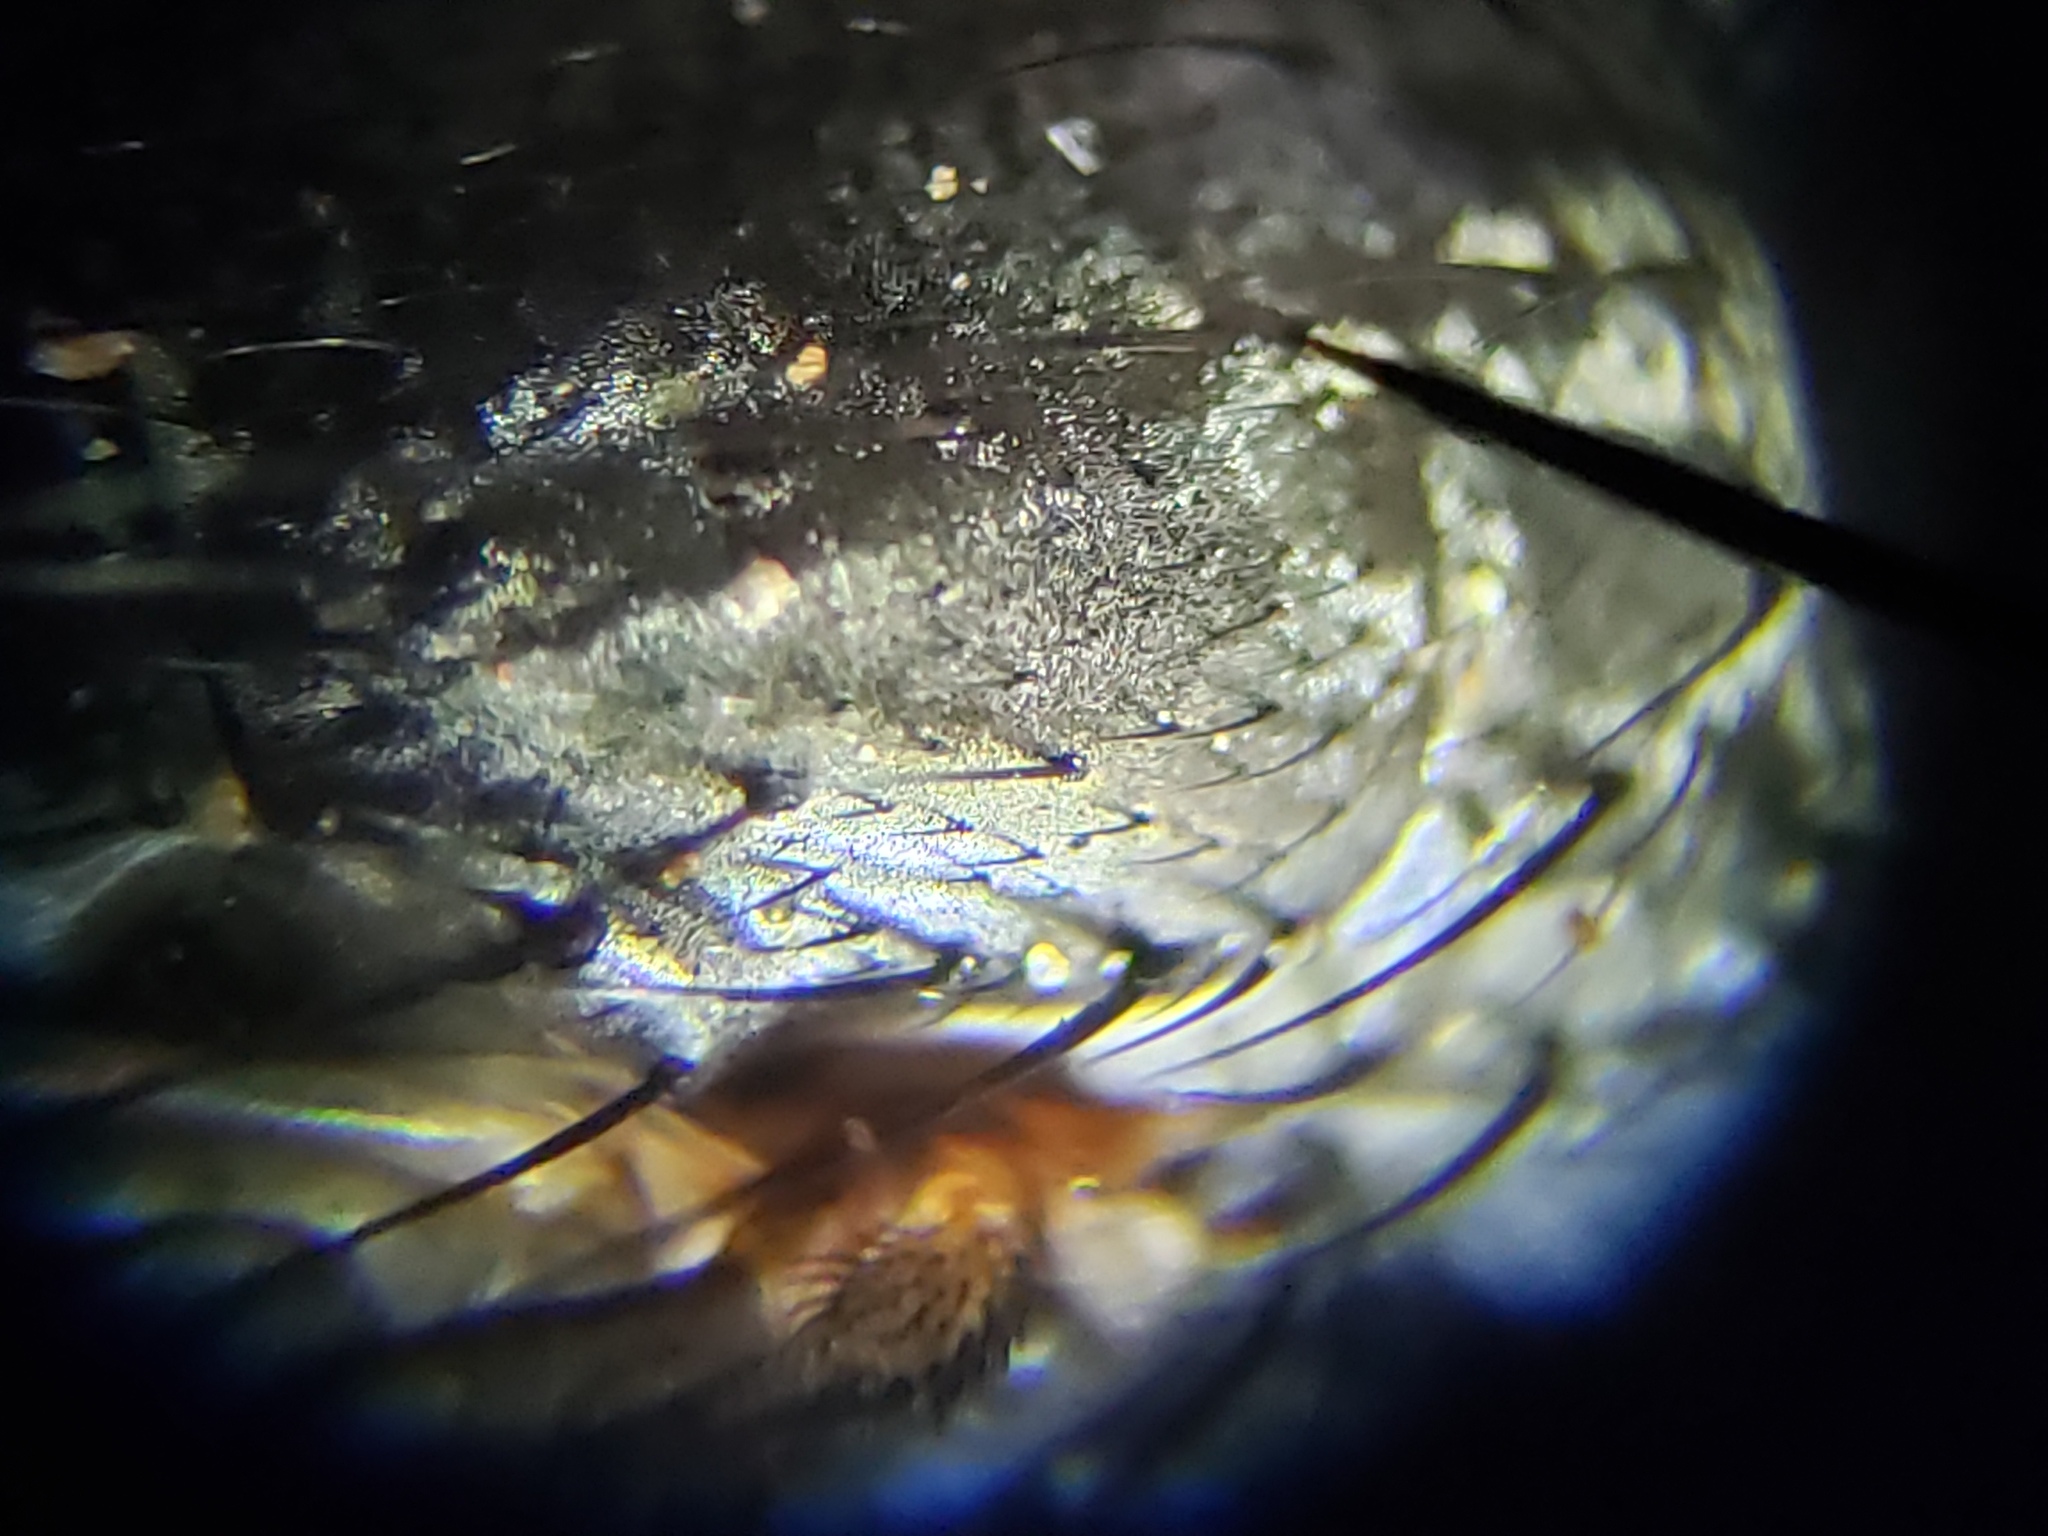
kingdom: Animalia
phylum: Arthropoda
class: Insecta
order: Diptera
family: Muscidae
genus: Muscina
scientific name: Muscina dorsilinea
